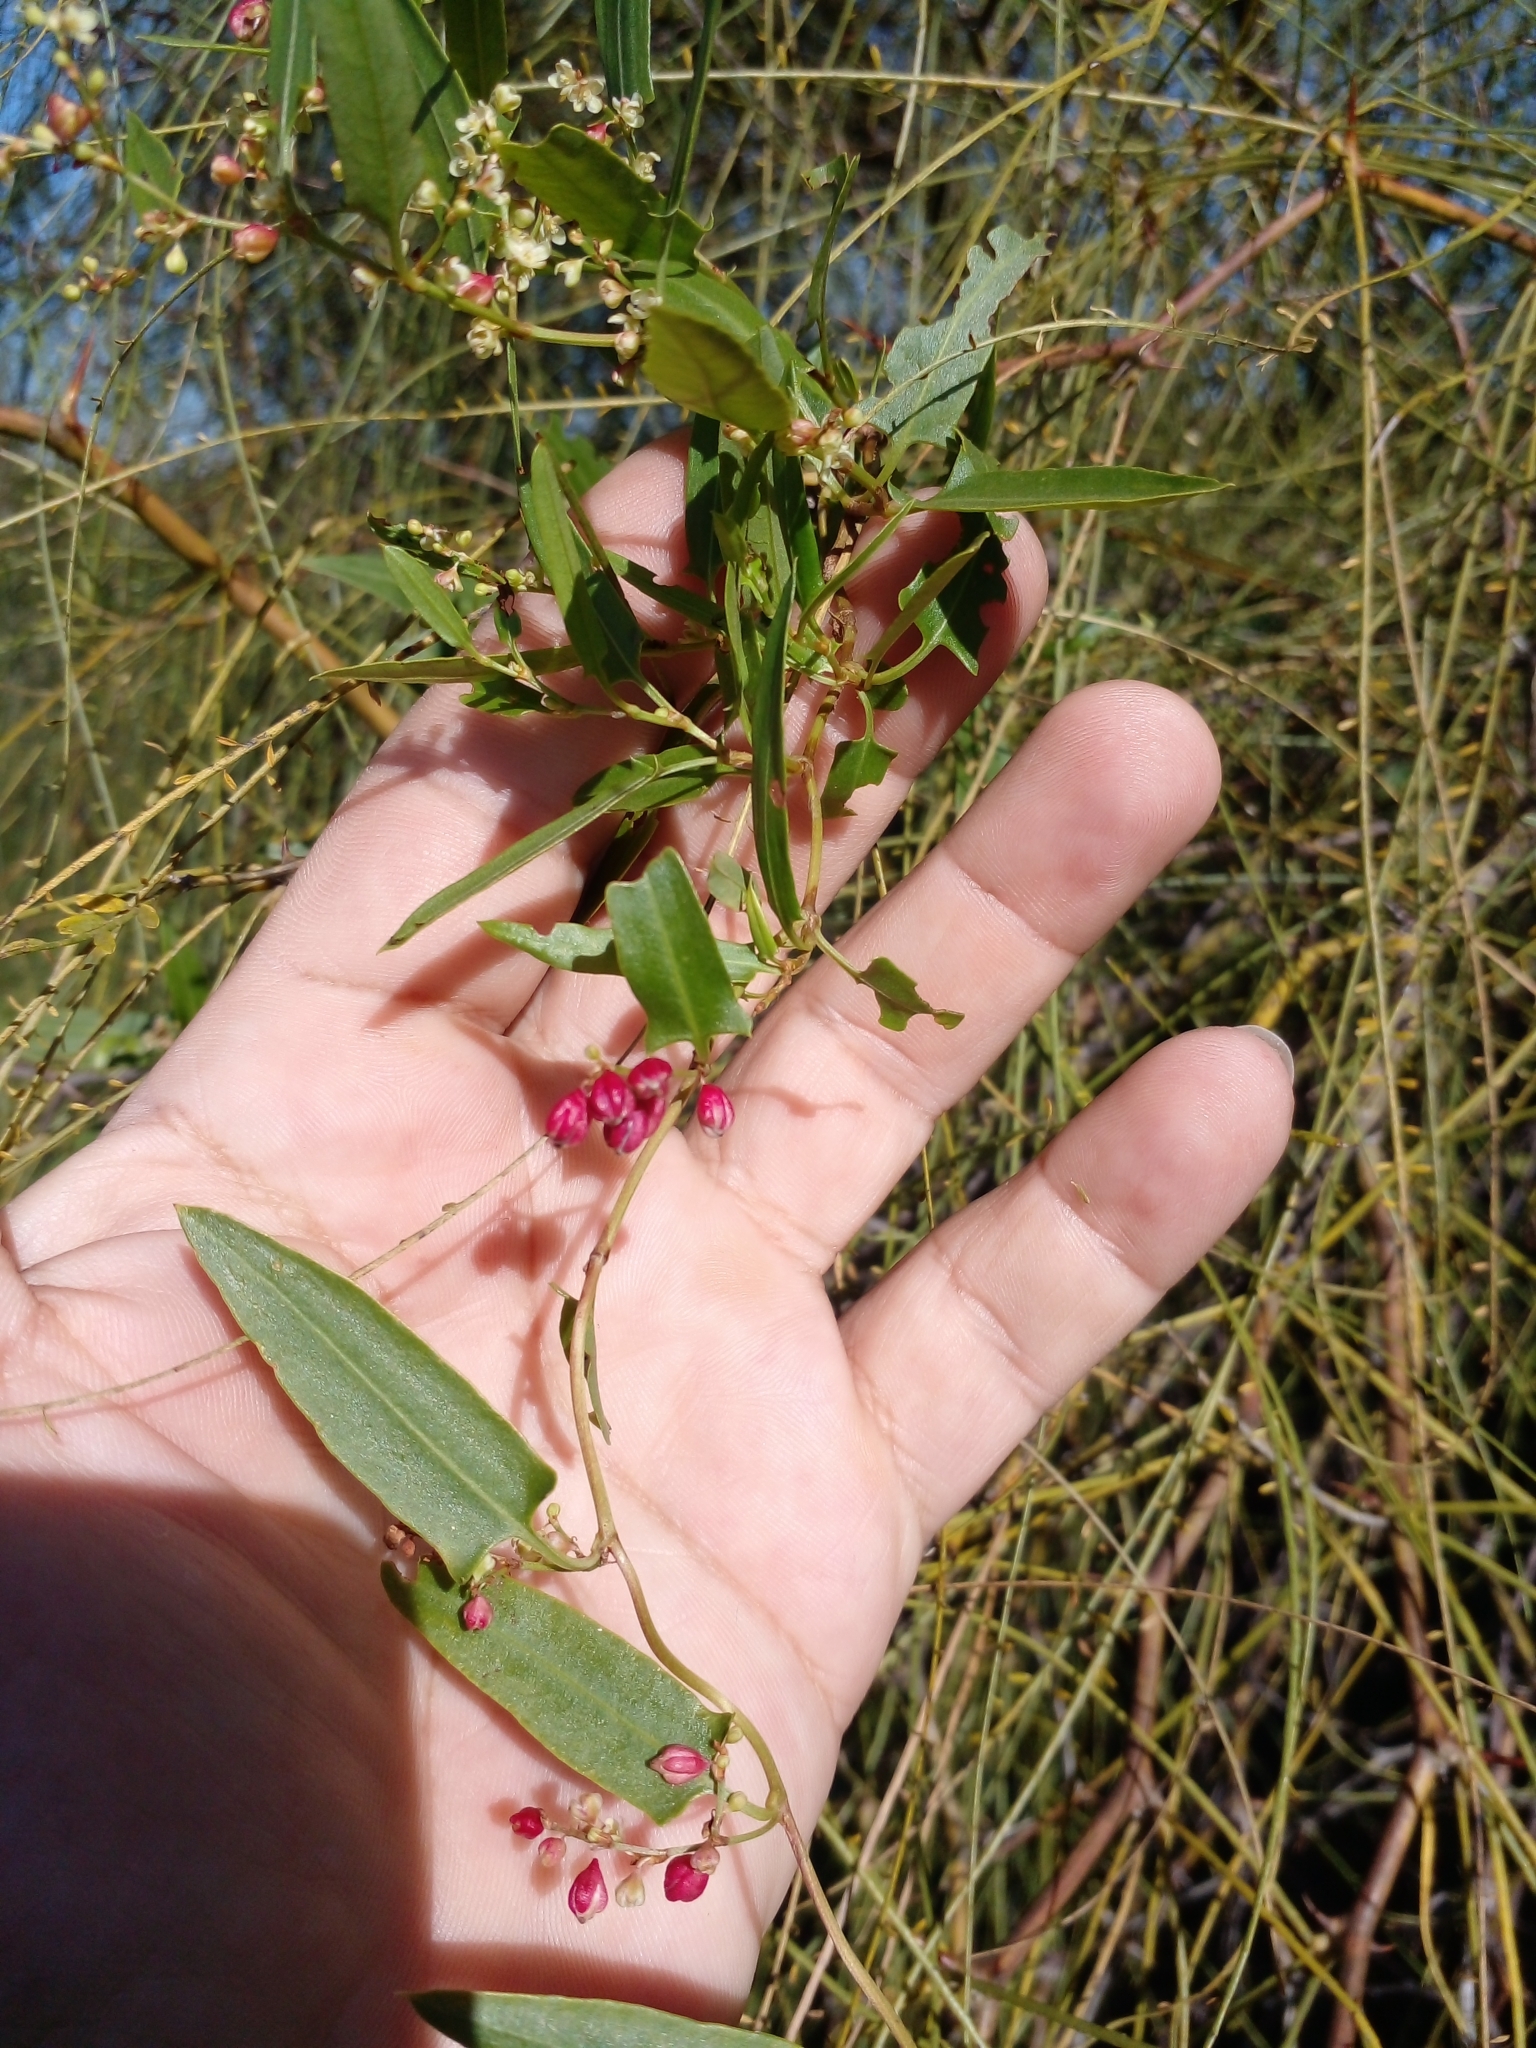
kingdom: Plantae
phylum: Tracheophyta
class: Magnoliopsida
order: Caryophyllales
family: Polygonaceae
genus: Muehlenbeckia
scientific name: Muehlenbeckia sagittifolia
